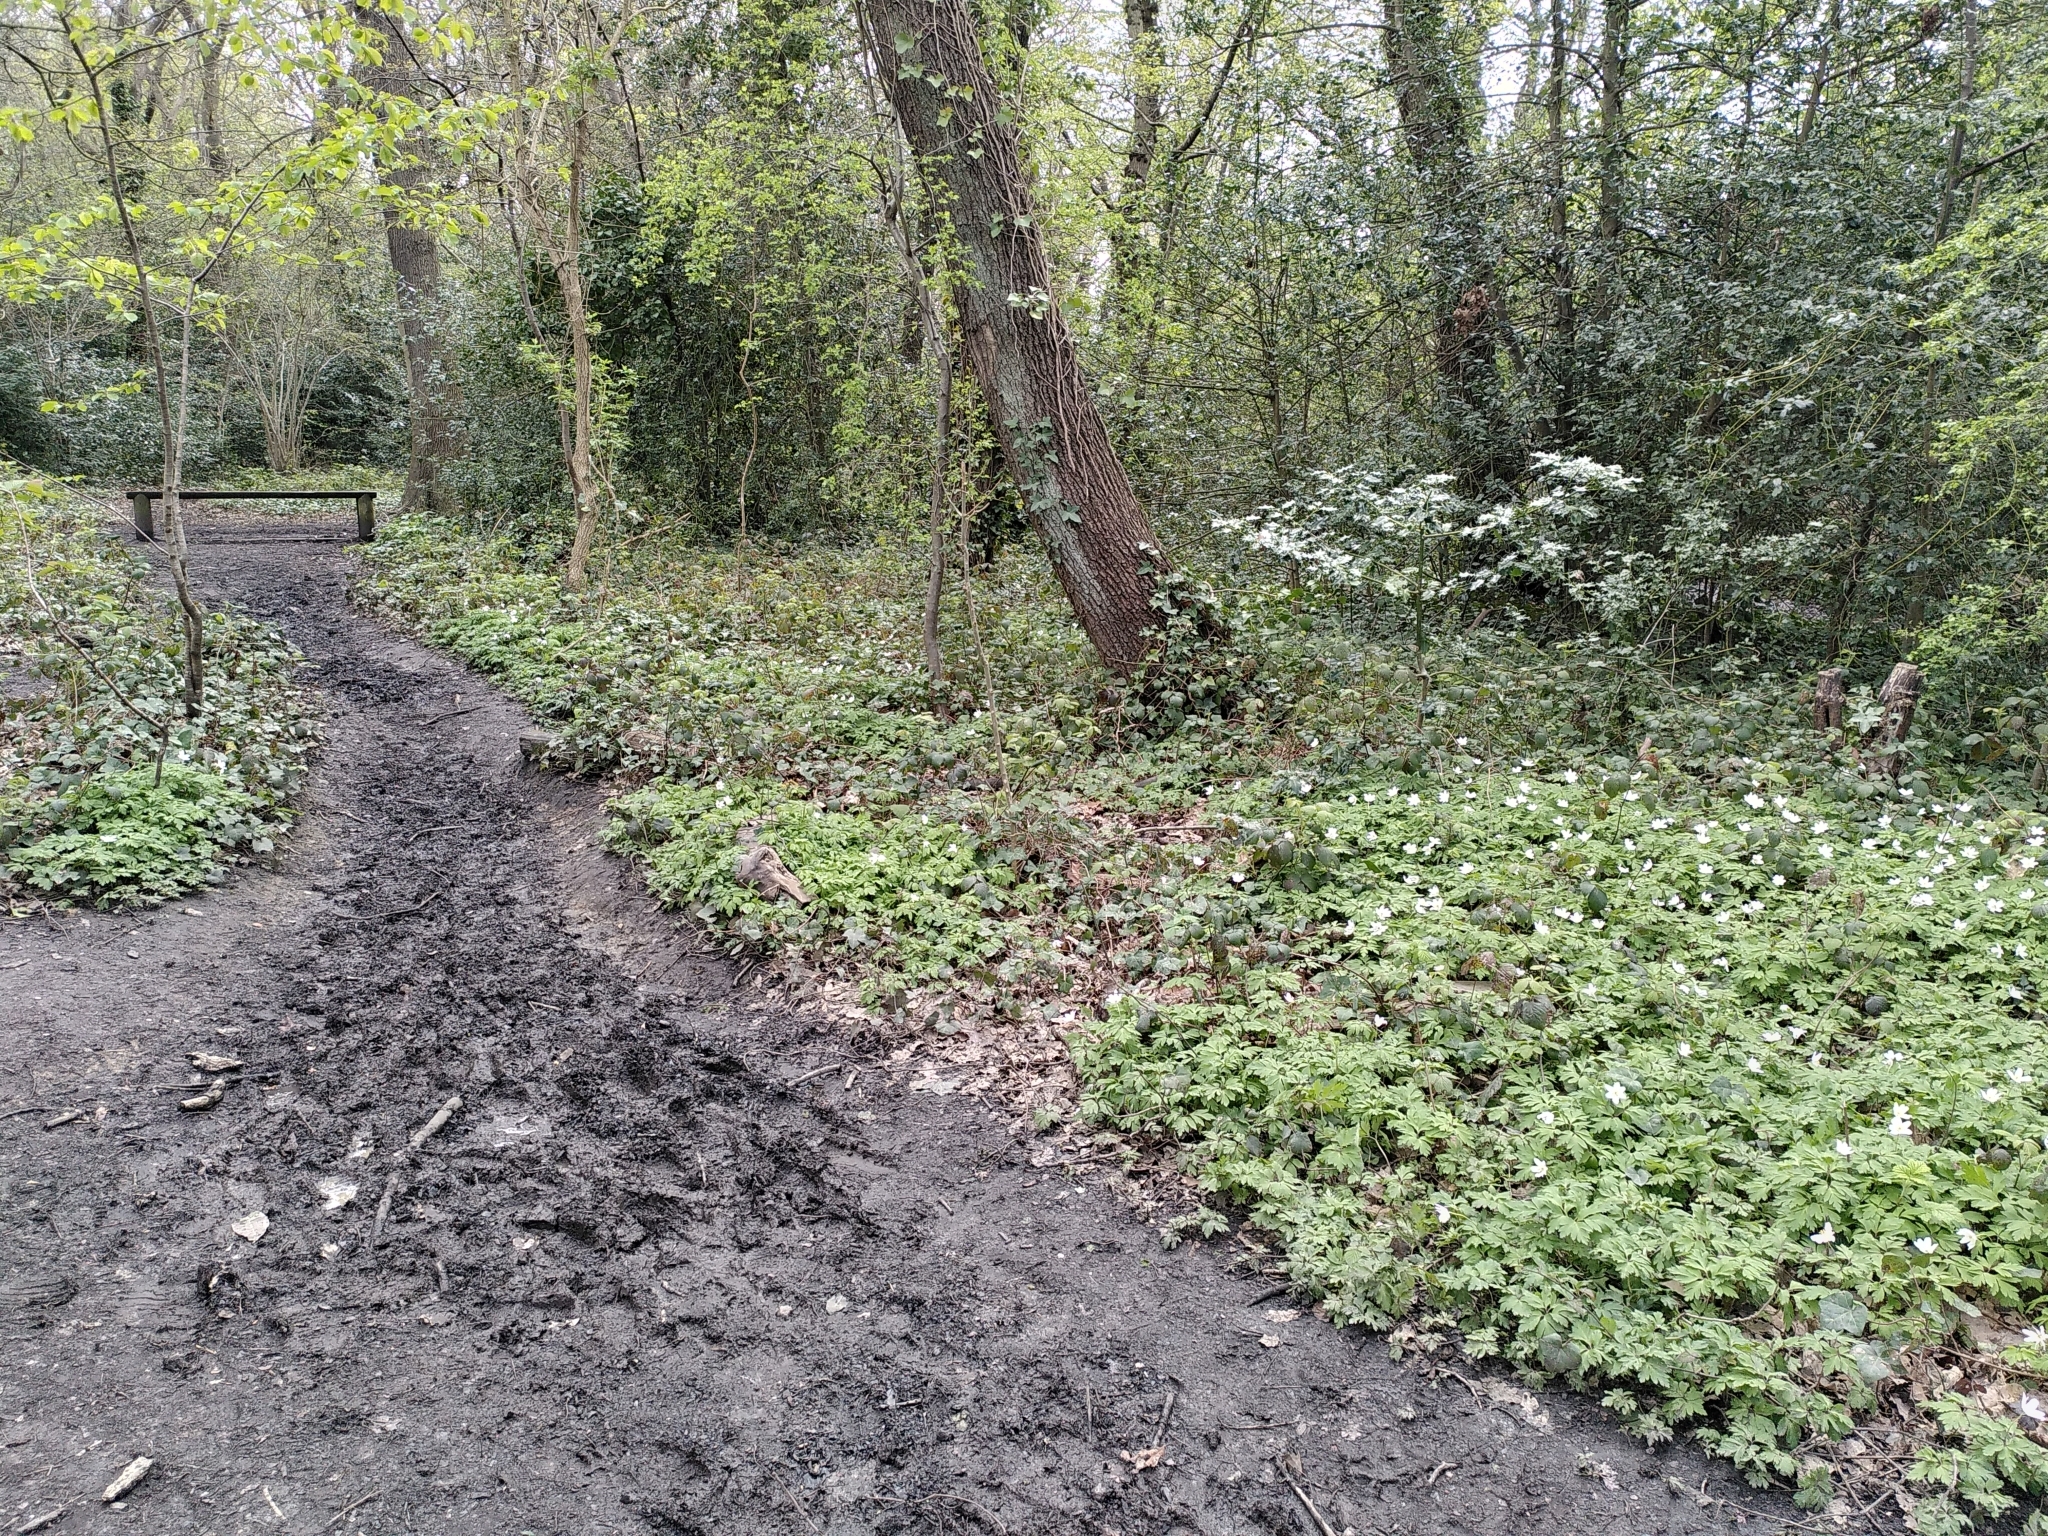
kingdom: Plantae
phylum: Tracheophyta
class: Magnoliopsida
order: Ranunculales
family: Ranunculaceae
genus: Anemone
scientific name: Anemone nemorosa
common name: Wood anemone
